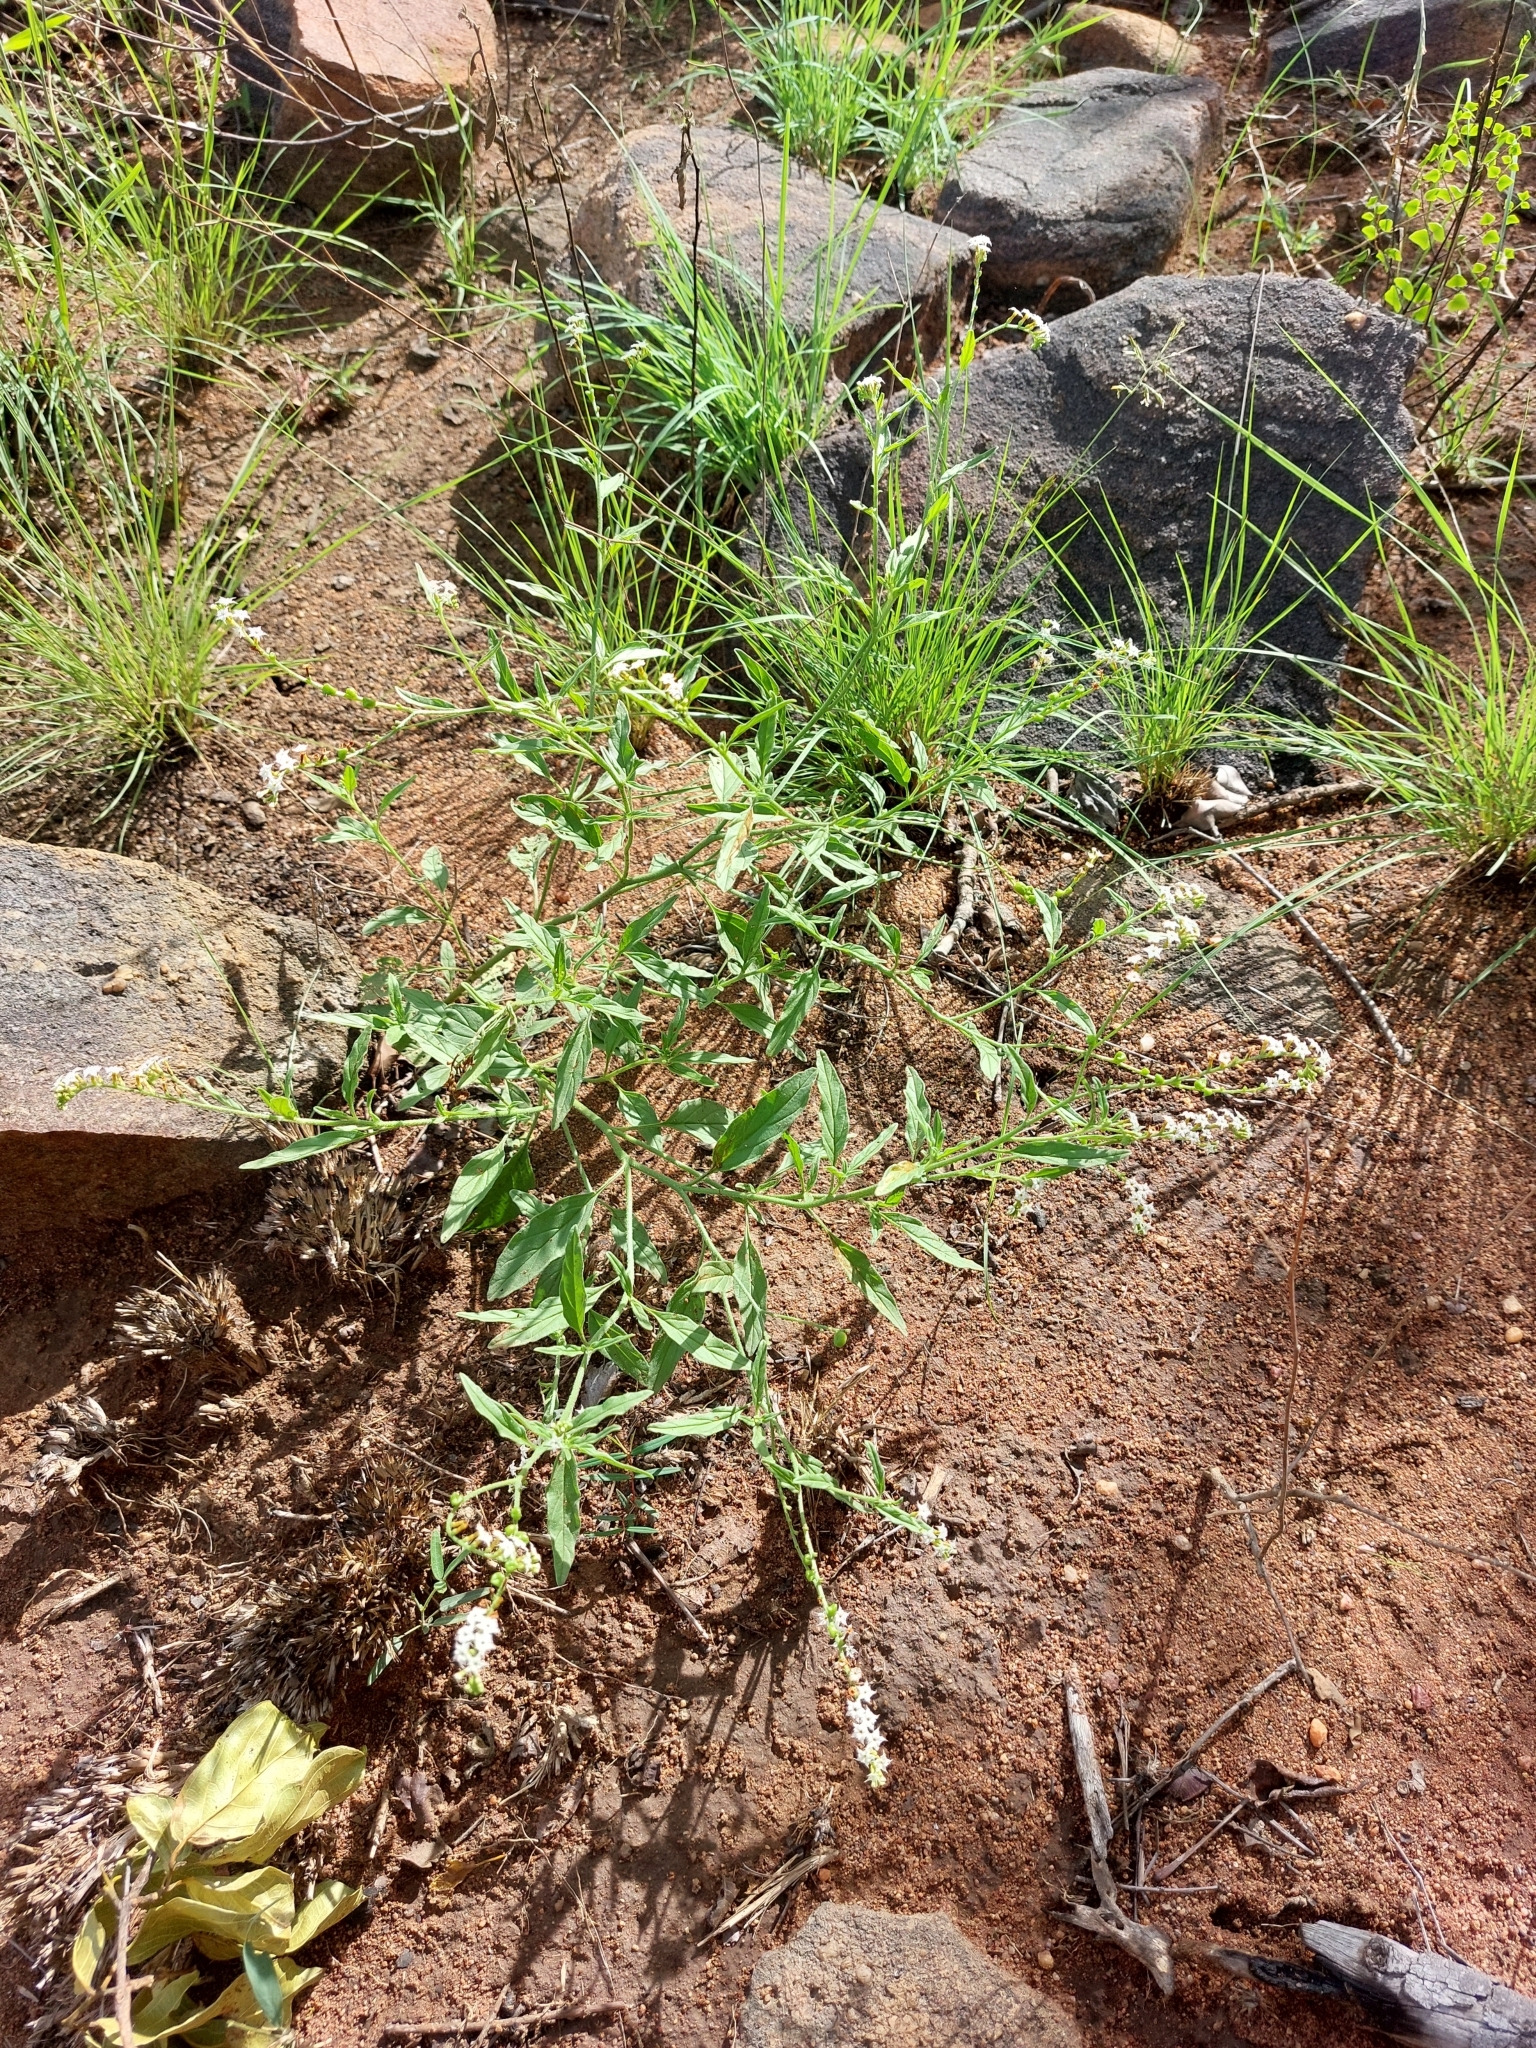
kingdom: Plantae
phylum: Tracheophyta
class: Magnoliopsida
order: Boraginales
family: Heliotropiaceae
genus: Heliotropium
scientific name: Heliotropium ciliatum
